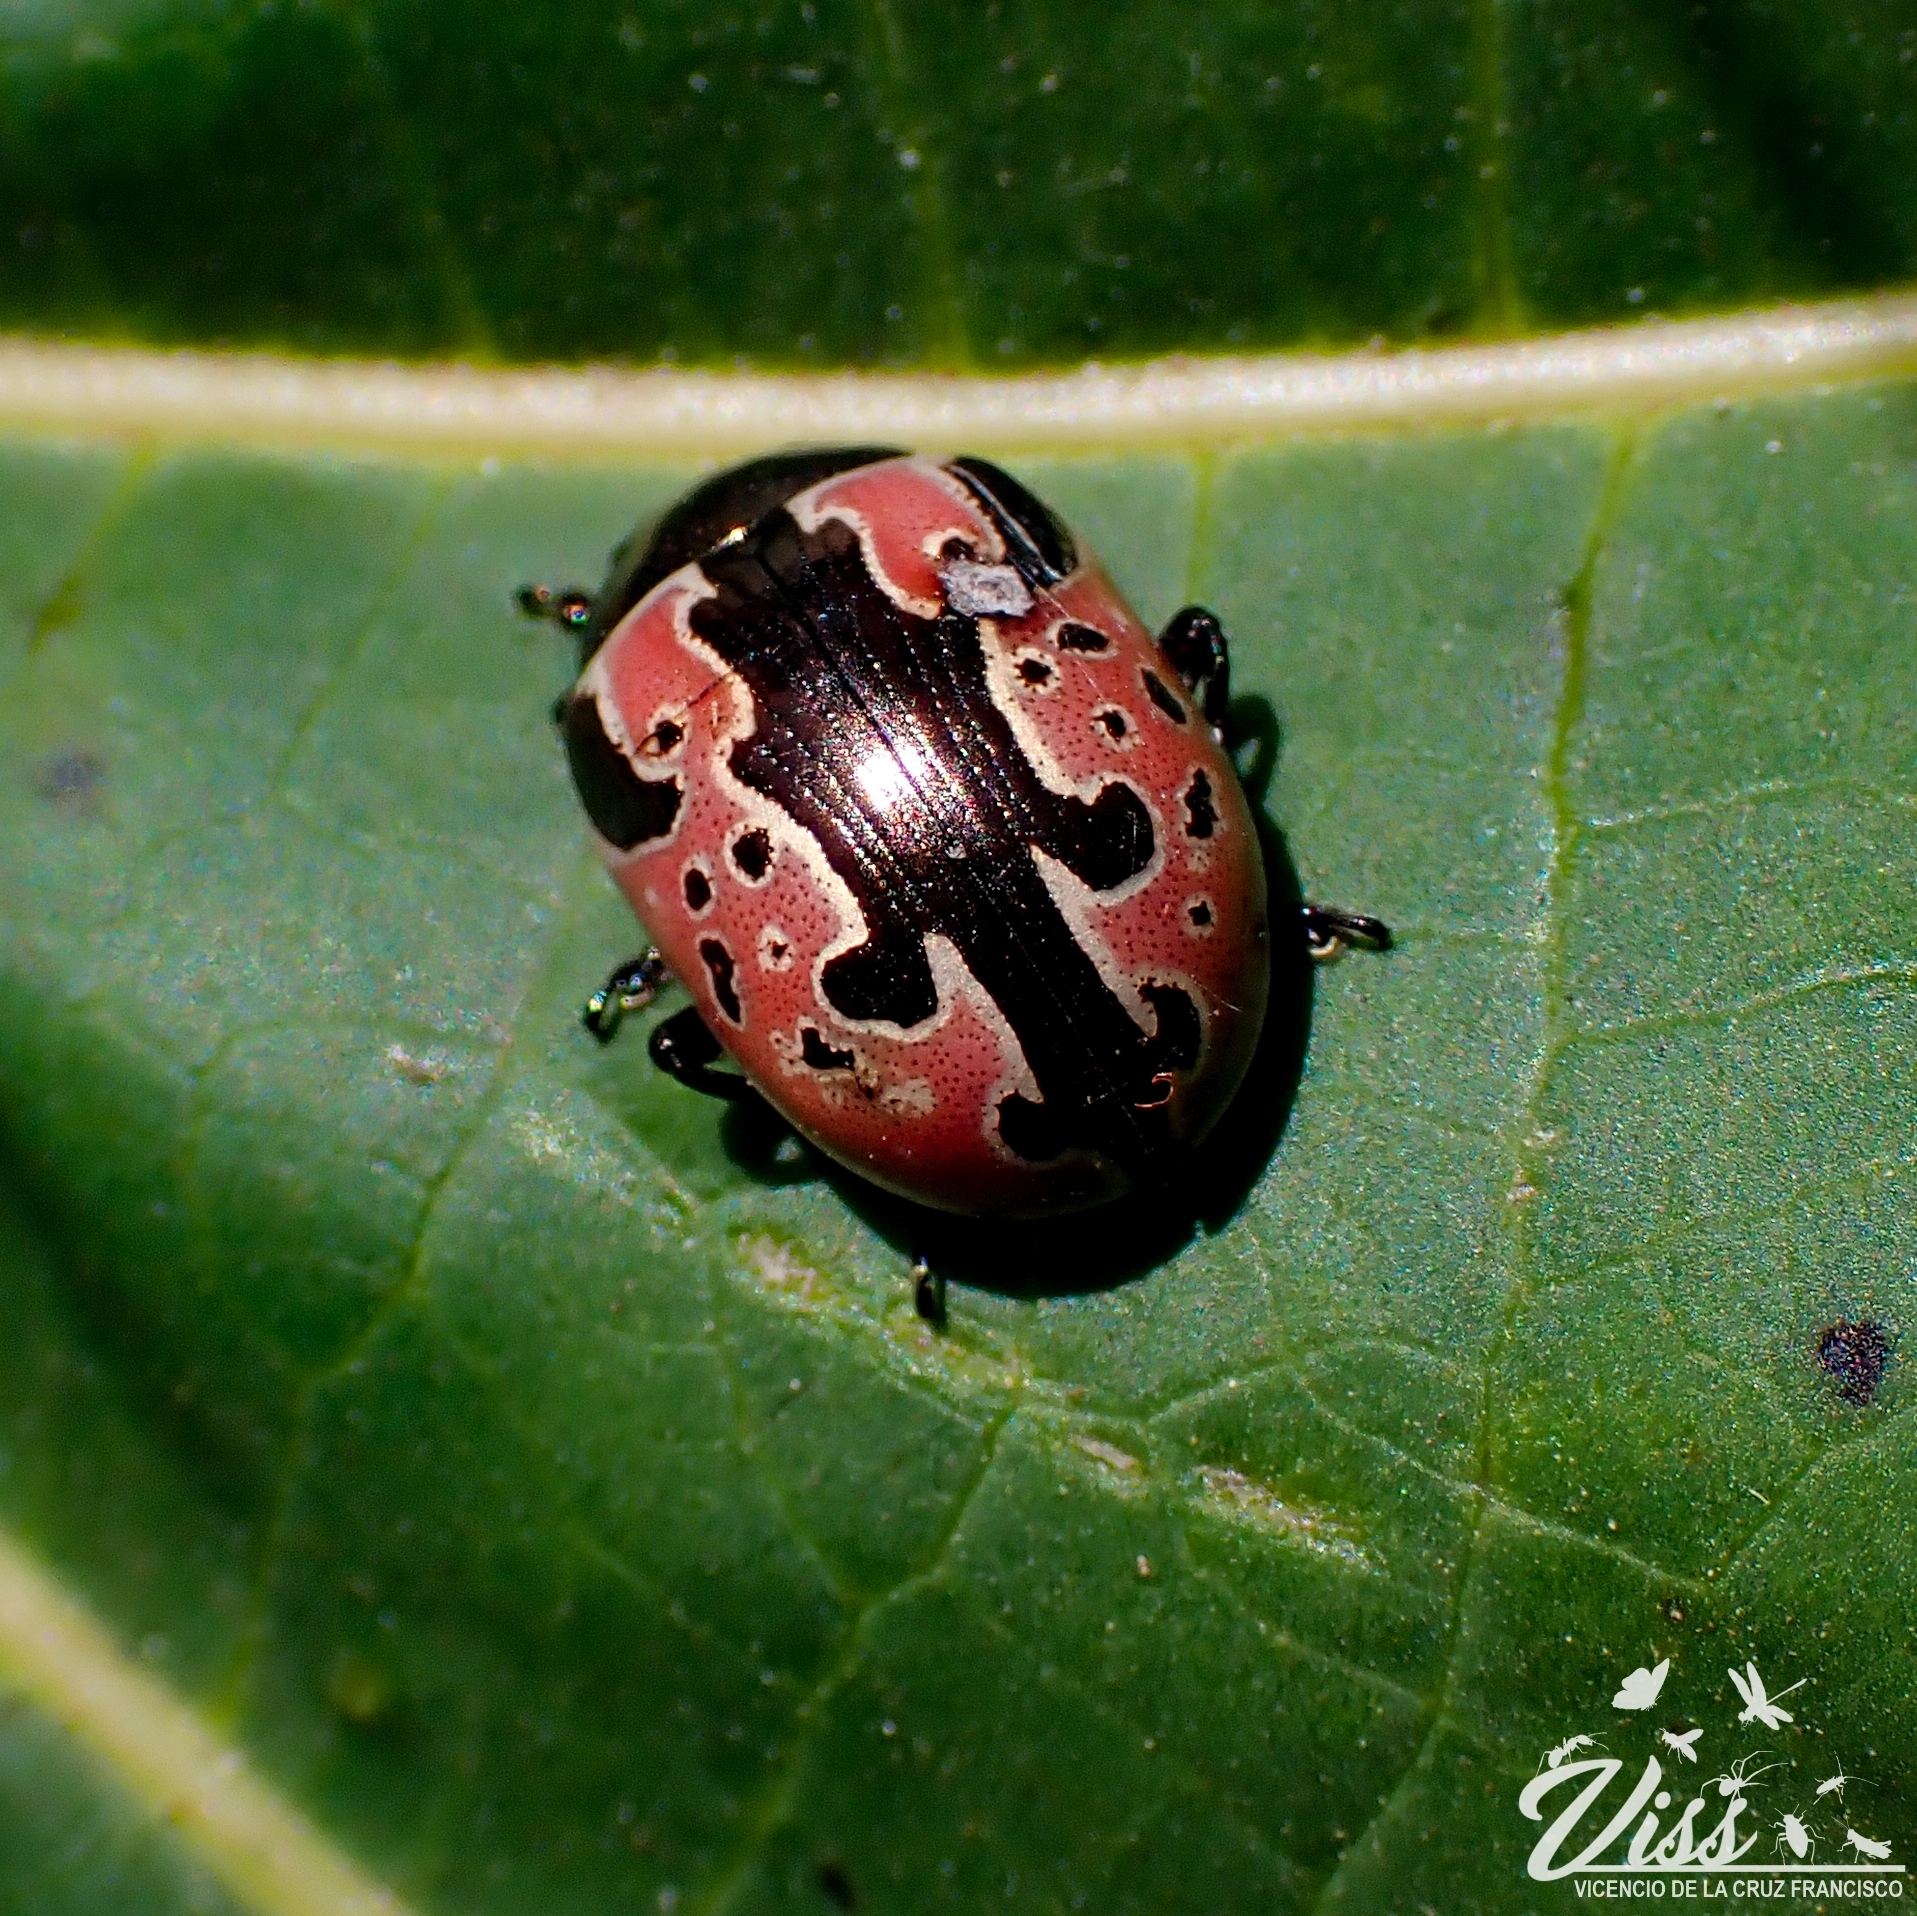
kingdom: Animalia
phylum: Arthropoda
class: Insecta
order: Coleoptera
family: Chrysomelidae
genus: Calligrapha
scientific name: Calligrapha sylvia
